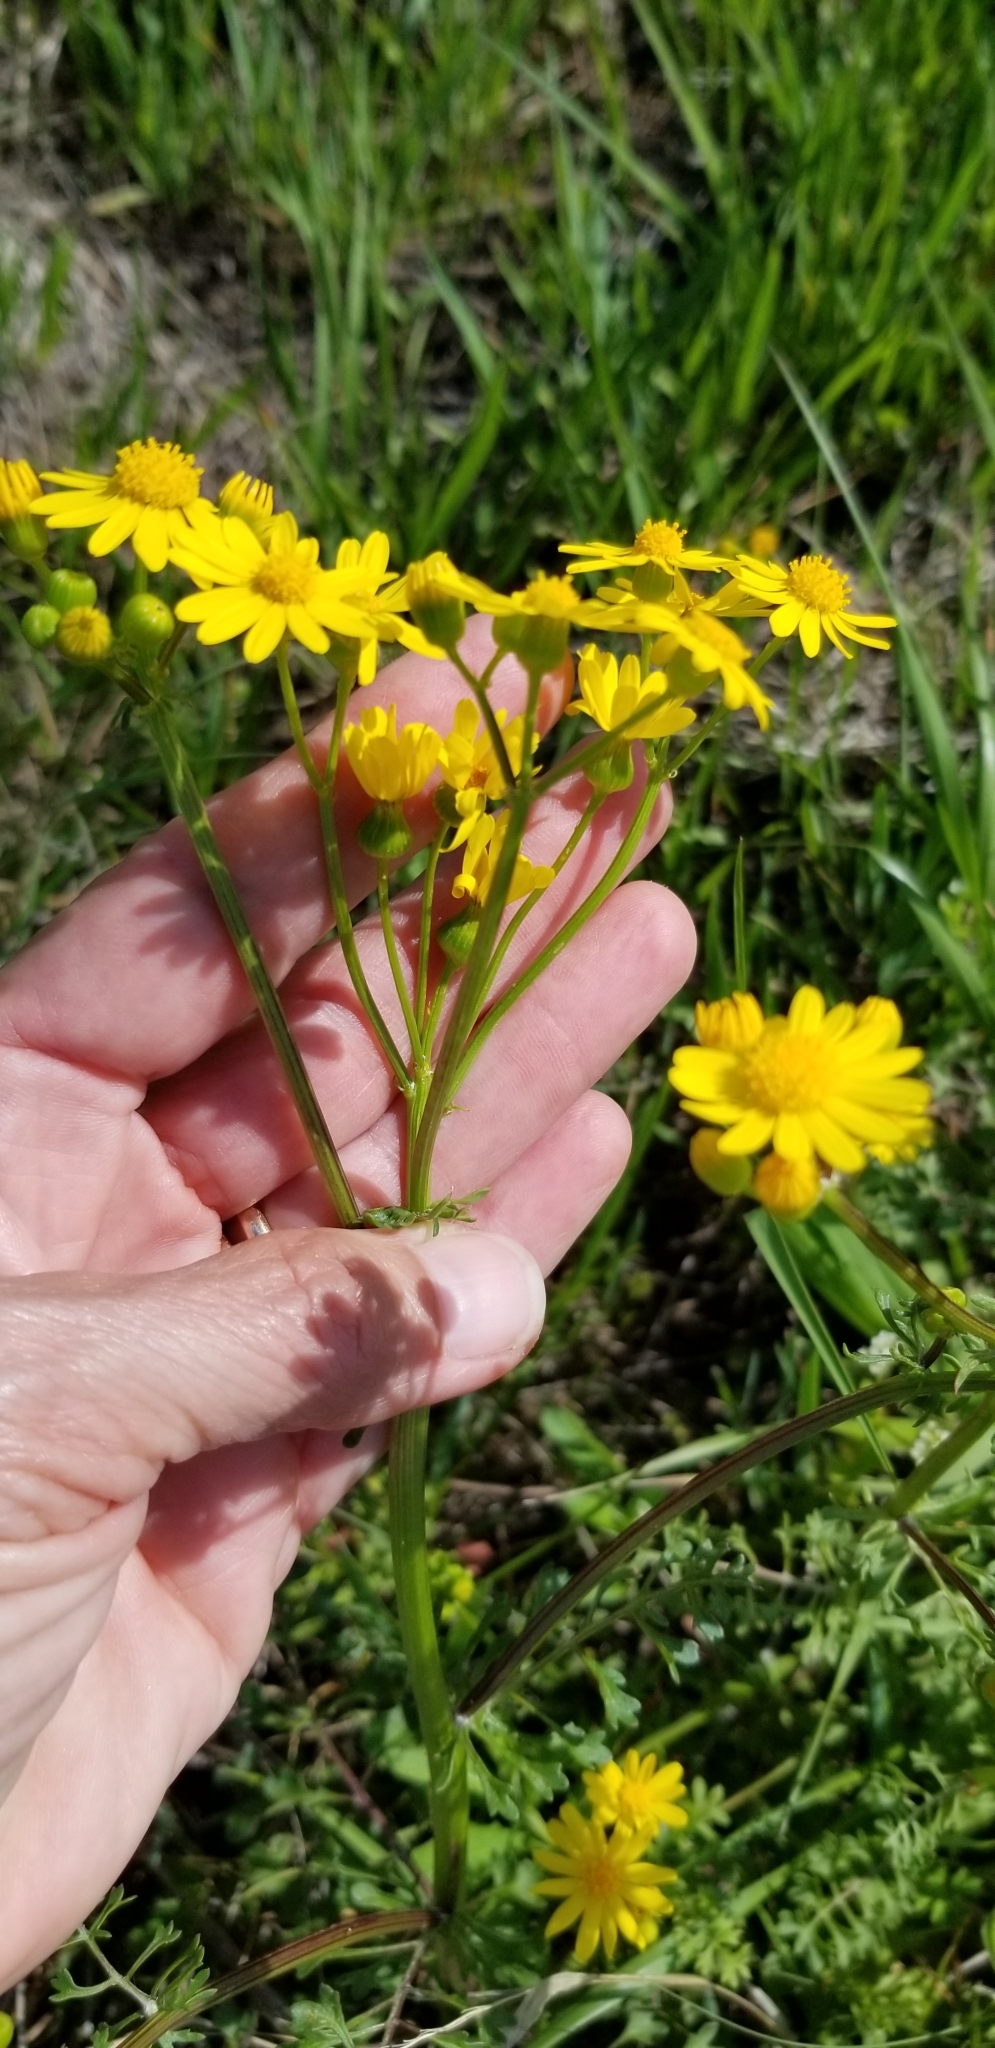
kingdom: Plantae
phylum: Tracheophyta
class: Magnoliopsida
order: Asterales
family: Asteraceae
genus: Packera
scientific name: Packera tampicana
